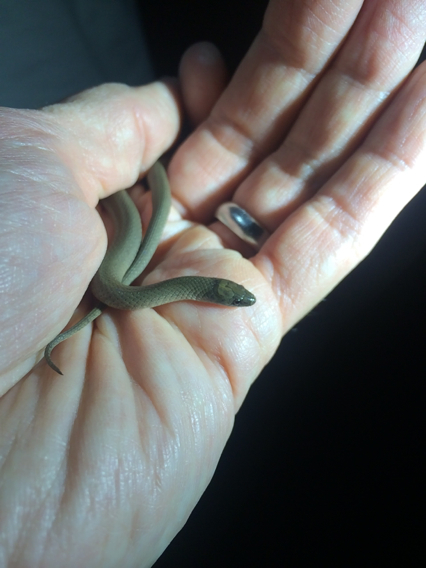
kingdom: Animalia
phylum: Chordata
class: Squamata
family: Colubridae
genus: Haldea
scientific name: Haldea striatula
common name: Rough earth snake
